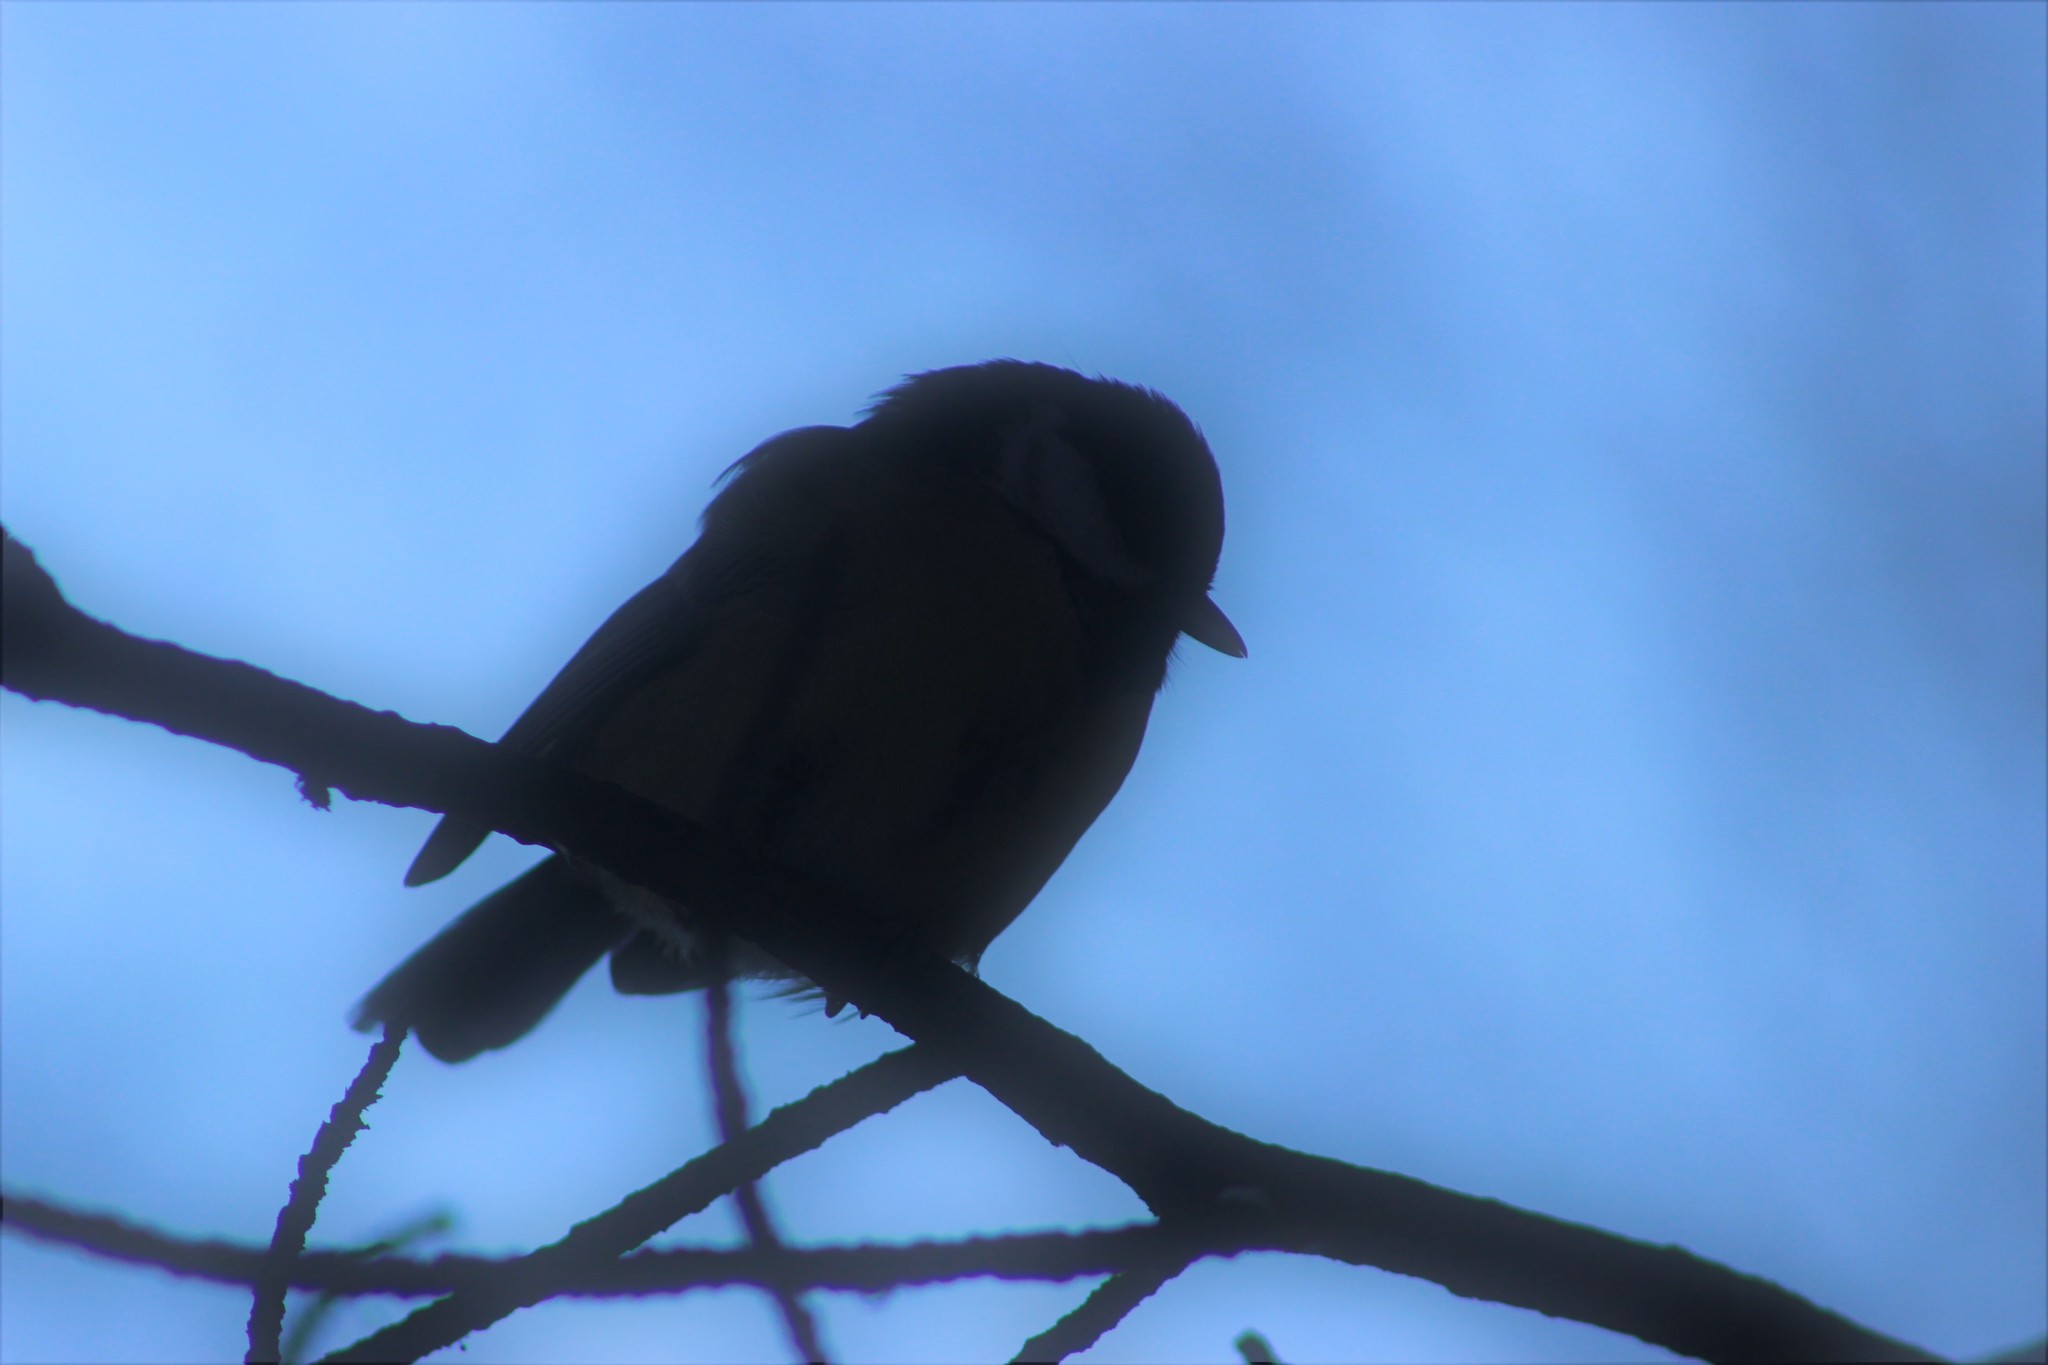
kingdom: Animalia
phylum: Chordata
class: Aves
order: Passeriformes
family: Paridae
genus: Parus
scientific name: Parus major
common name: Great tit
